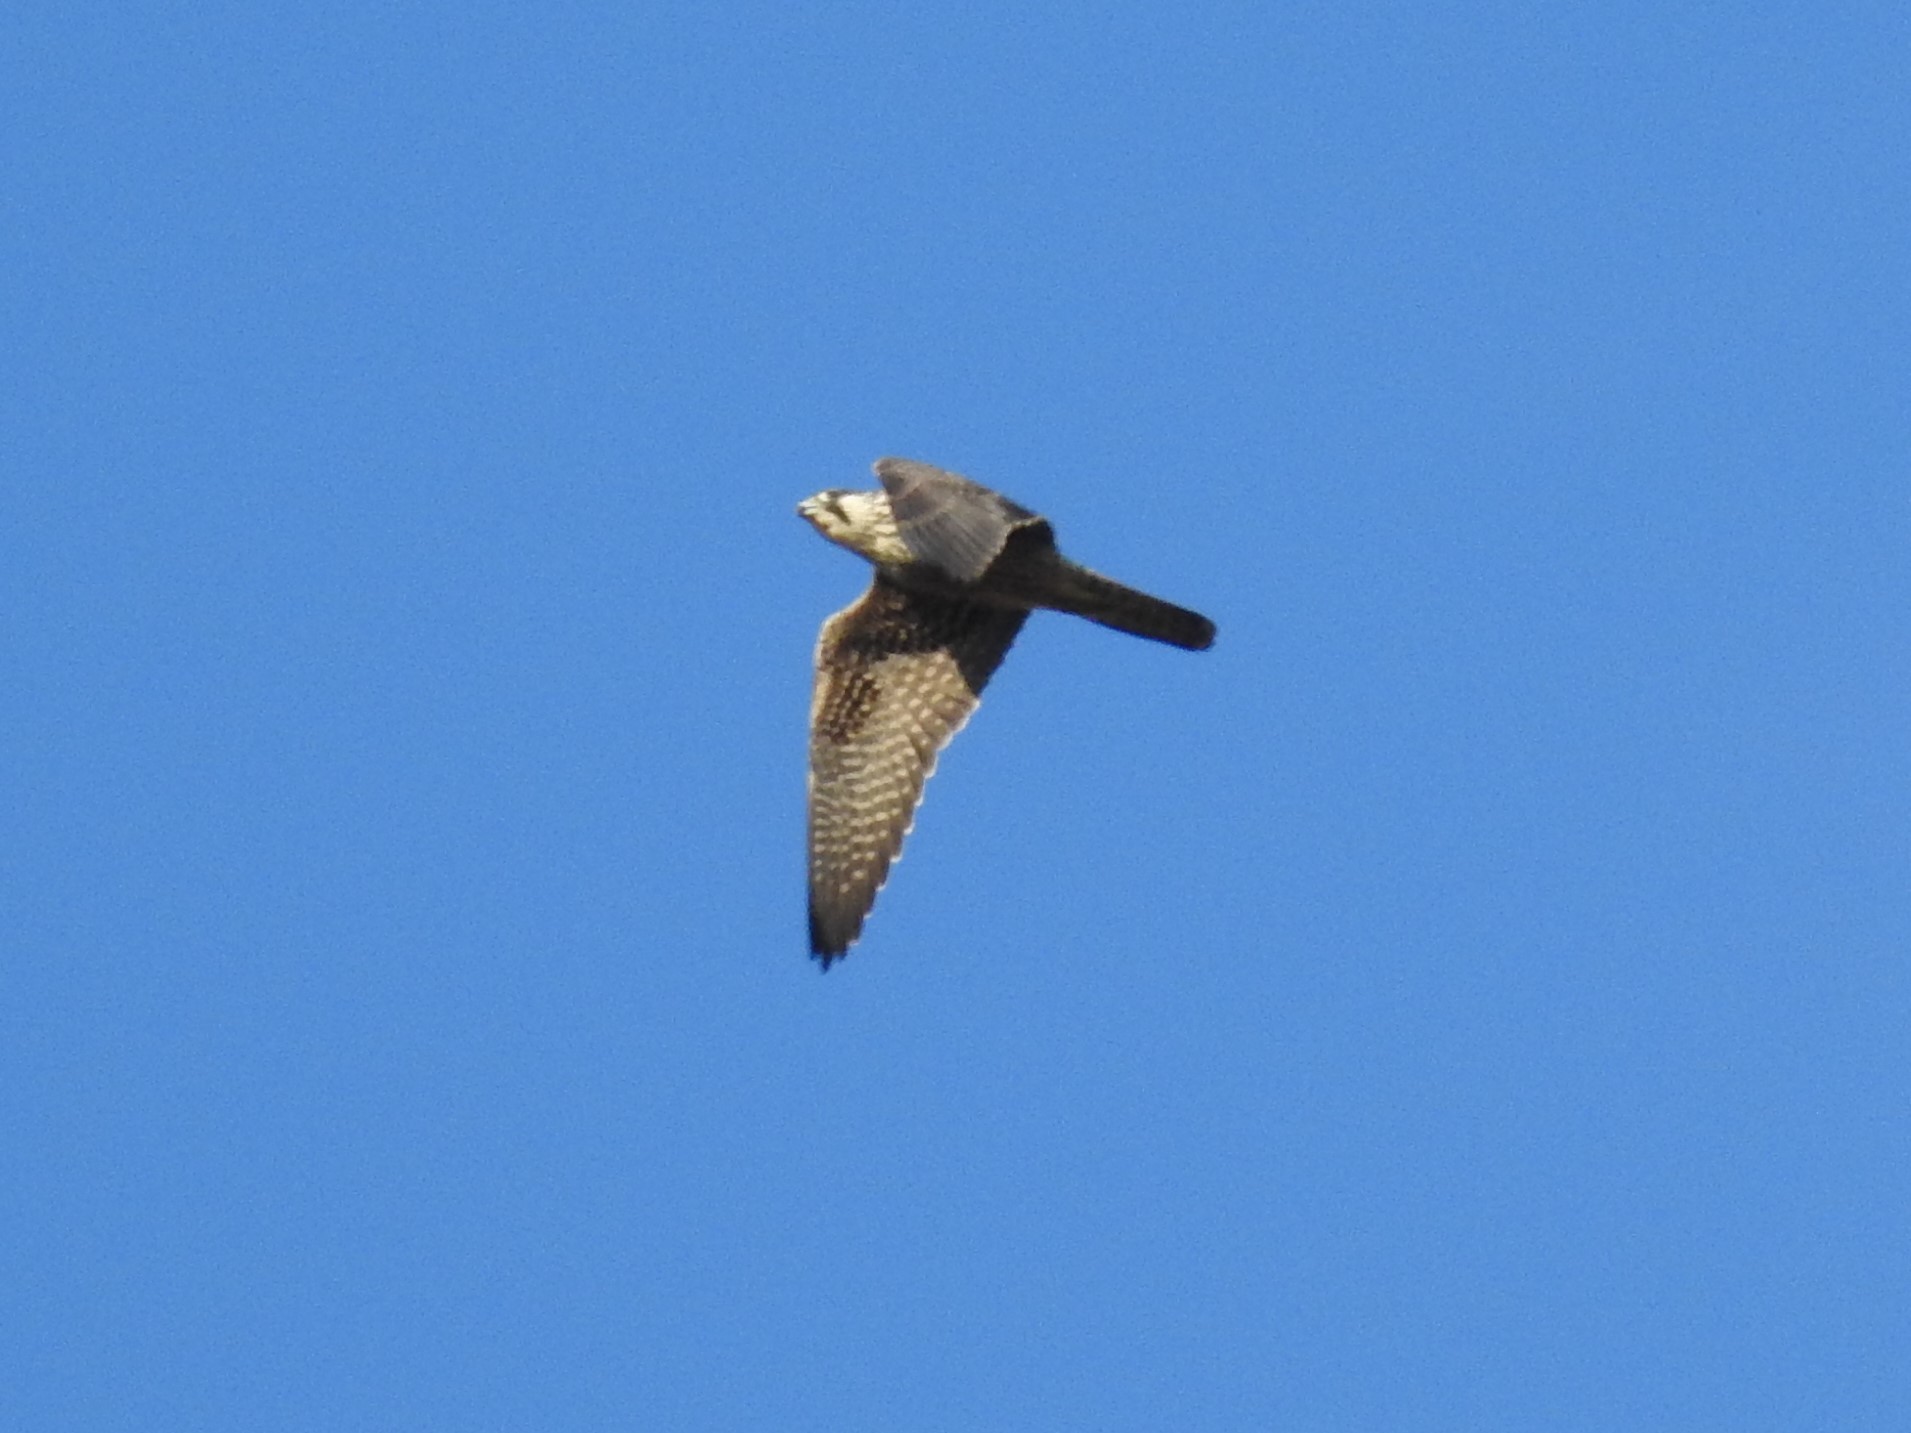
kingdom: Animalia
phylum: Chordata
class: Aves
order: Falconiformes
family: Falconidae
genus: Falco
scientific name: Falco peregrinus
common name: Peregrine falcon
